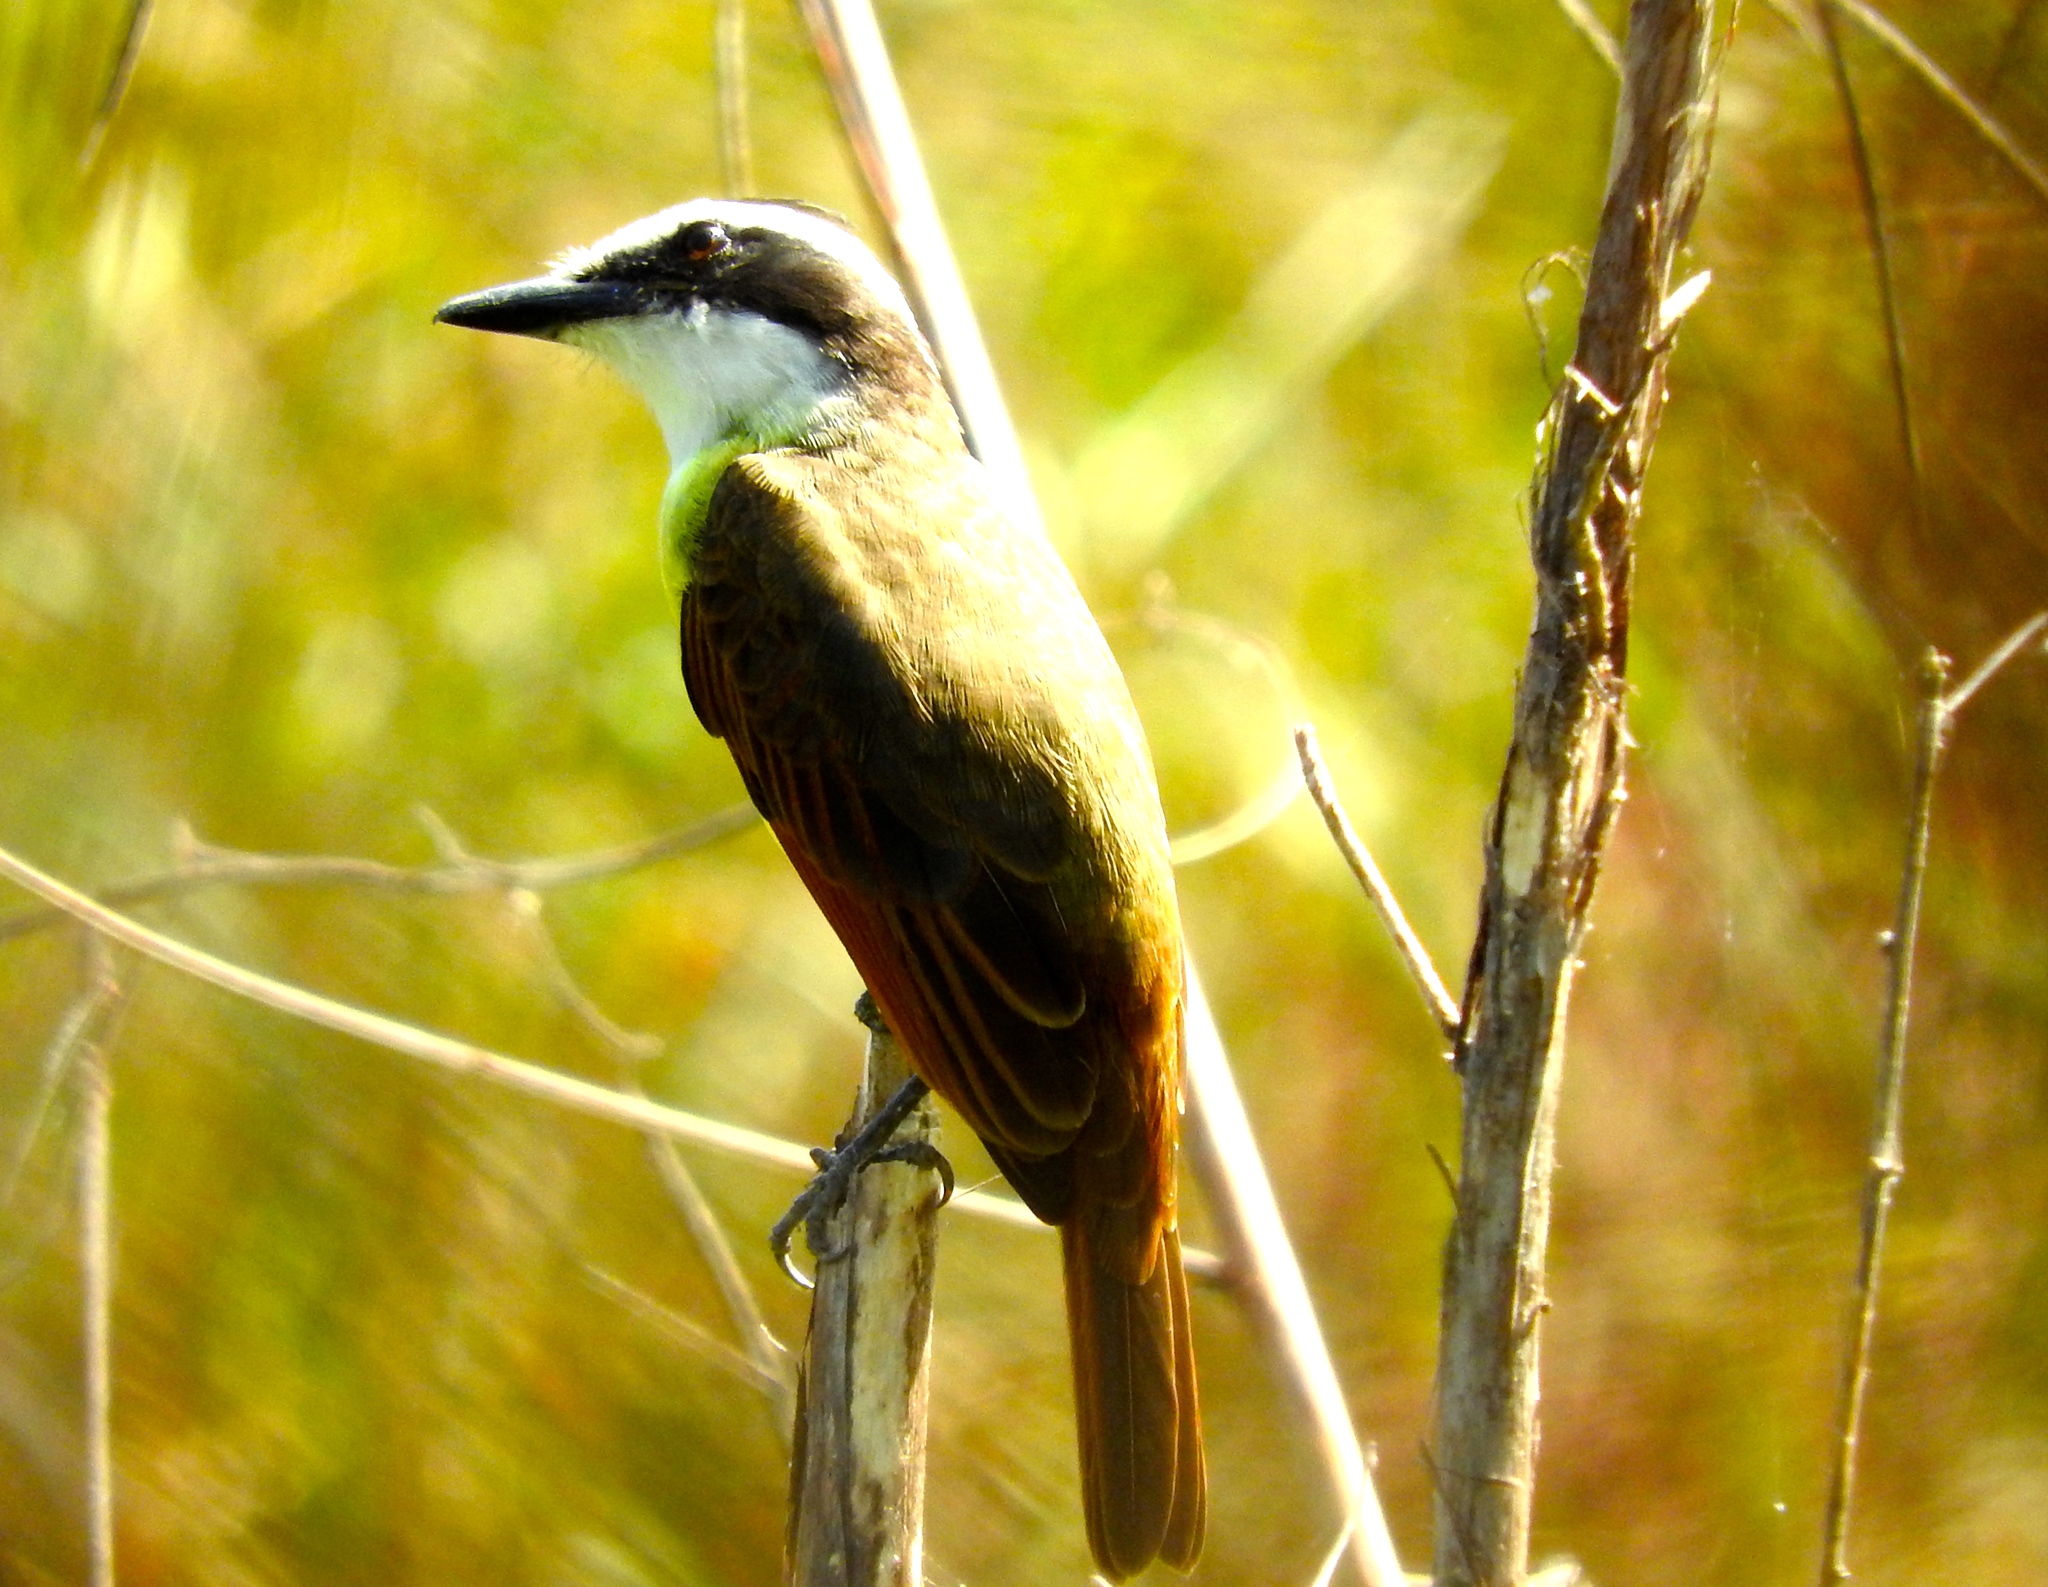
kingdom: Animalia
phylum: Chordata
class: Aves
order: Passeriformes
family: Tyrannidae
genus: Pitangus
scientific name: Pitangus sulphuratus
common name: Great kiskadee
